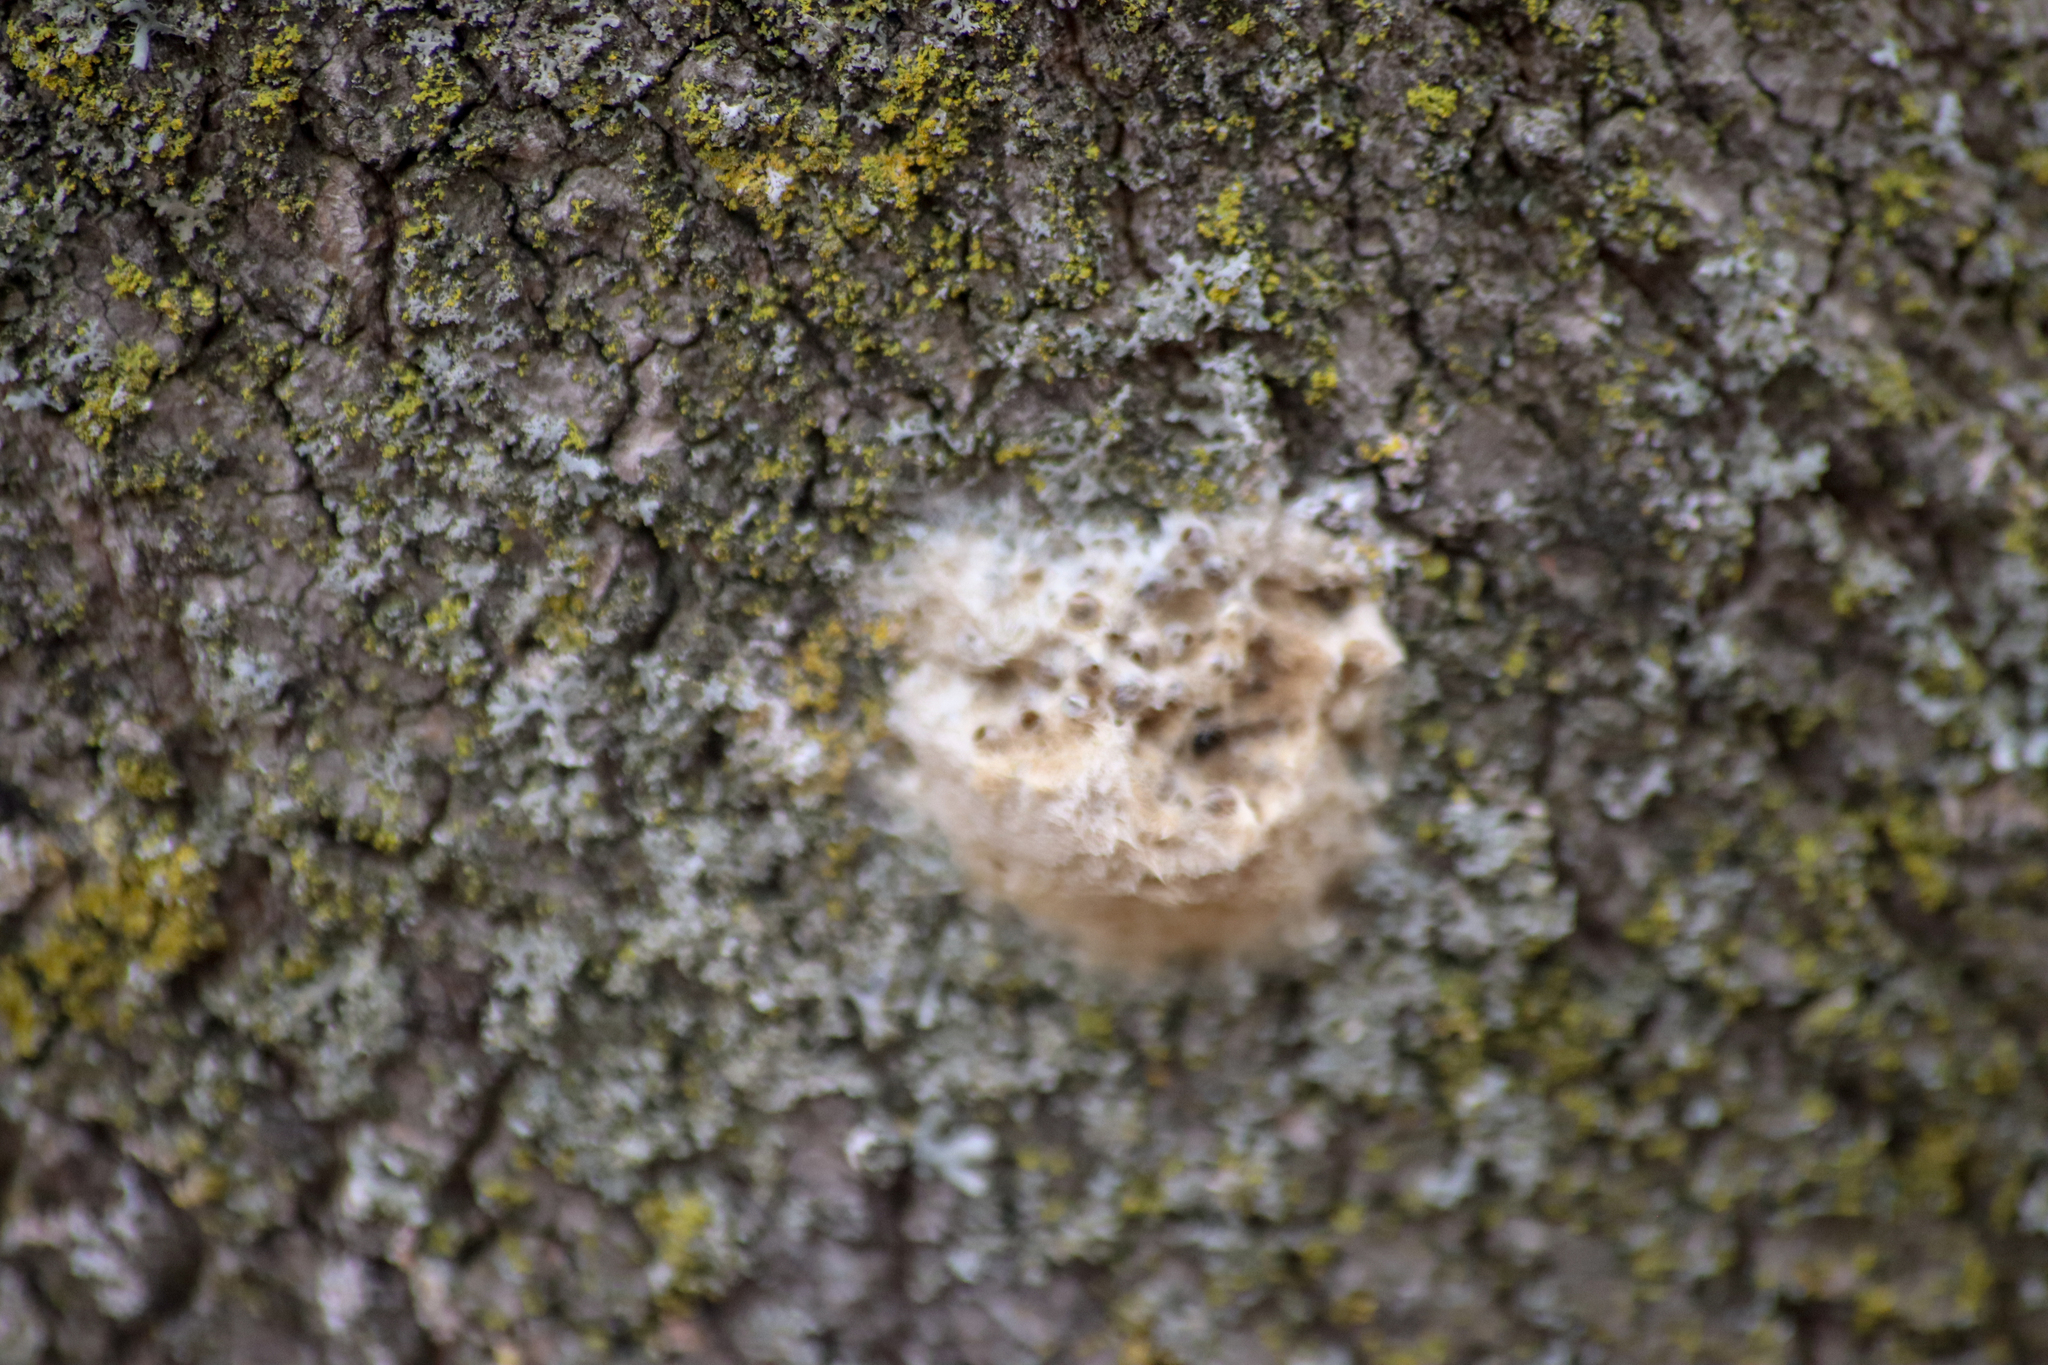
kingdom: Animalia
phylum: Arthropoda
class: Insecta
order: Lepidoptera
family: Erebidae
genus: Lymantria
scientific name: Lymantria dispar
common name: Gypsy moth
